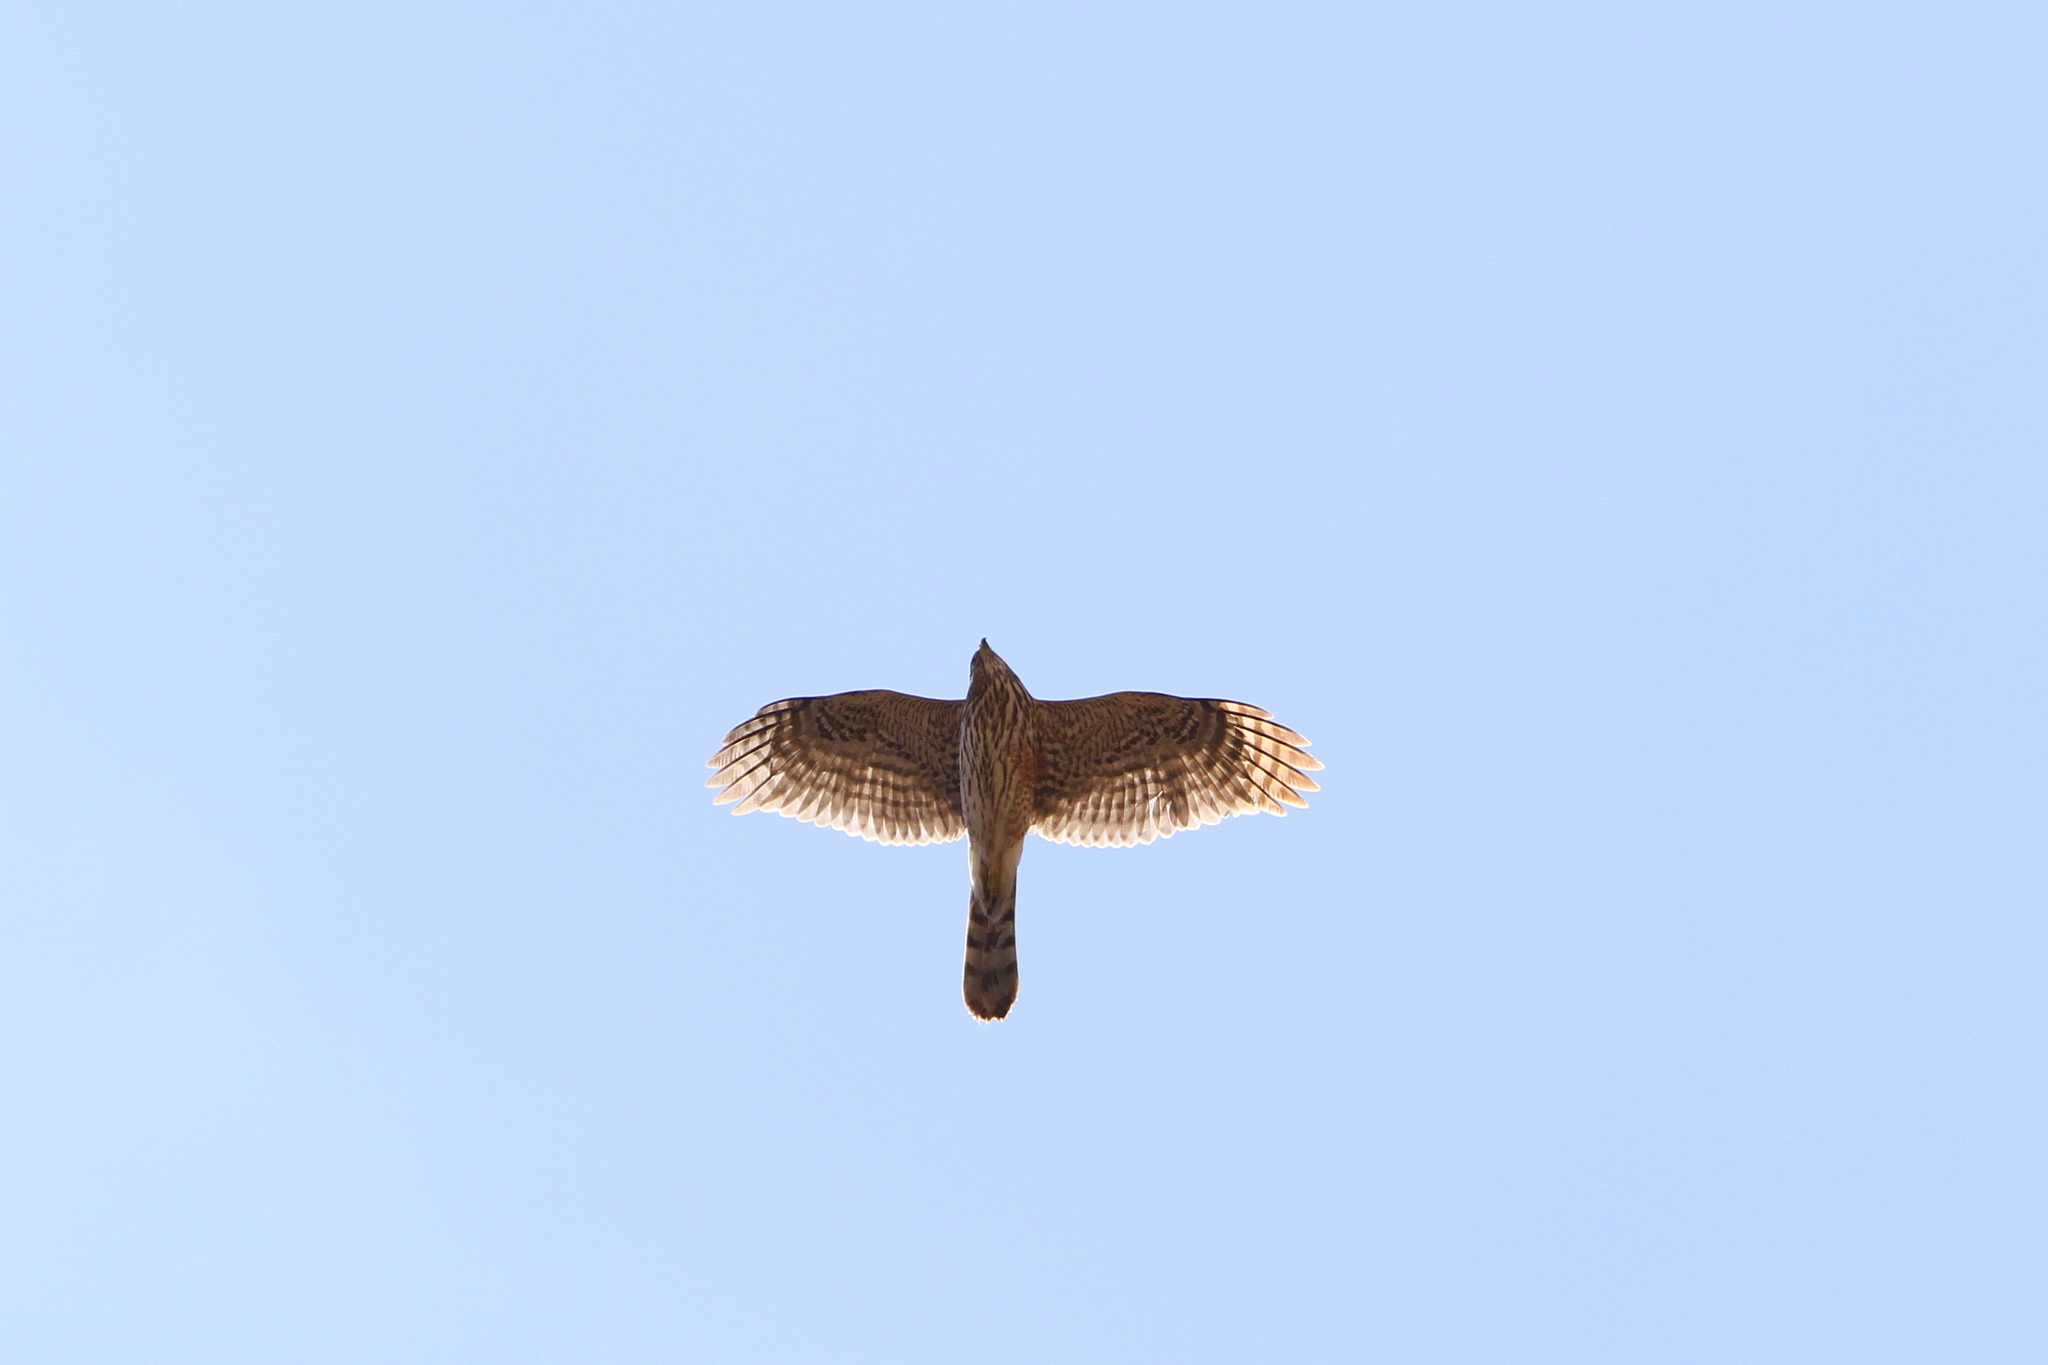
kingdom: Animalia
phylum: Chordata
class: Aves
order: Accipitriformes
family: Accipitridae
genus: Accipiter
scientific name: Accipiter cooperii
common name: Cooper's hawk
